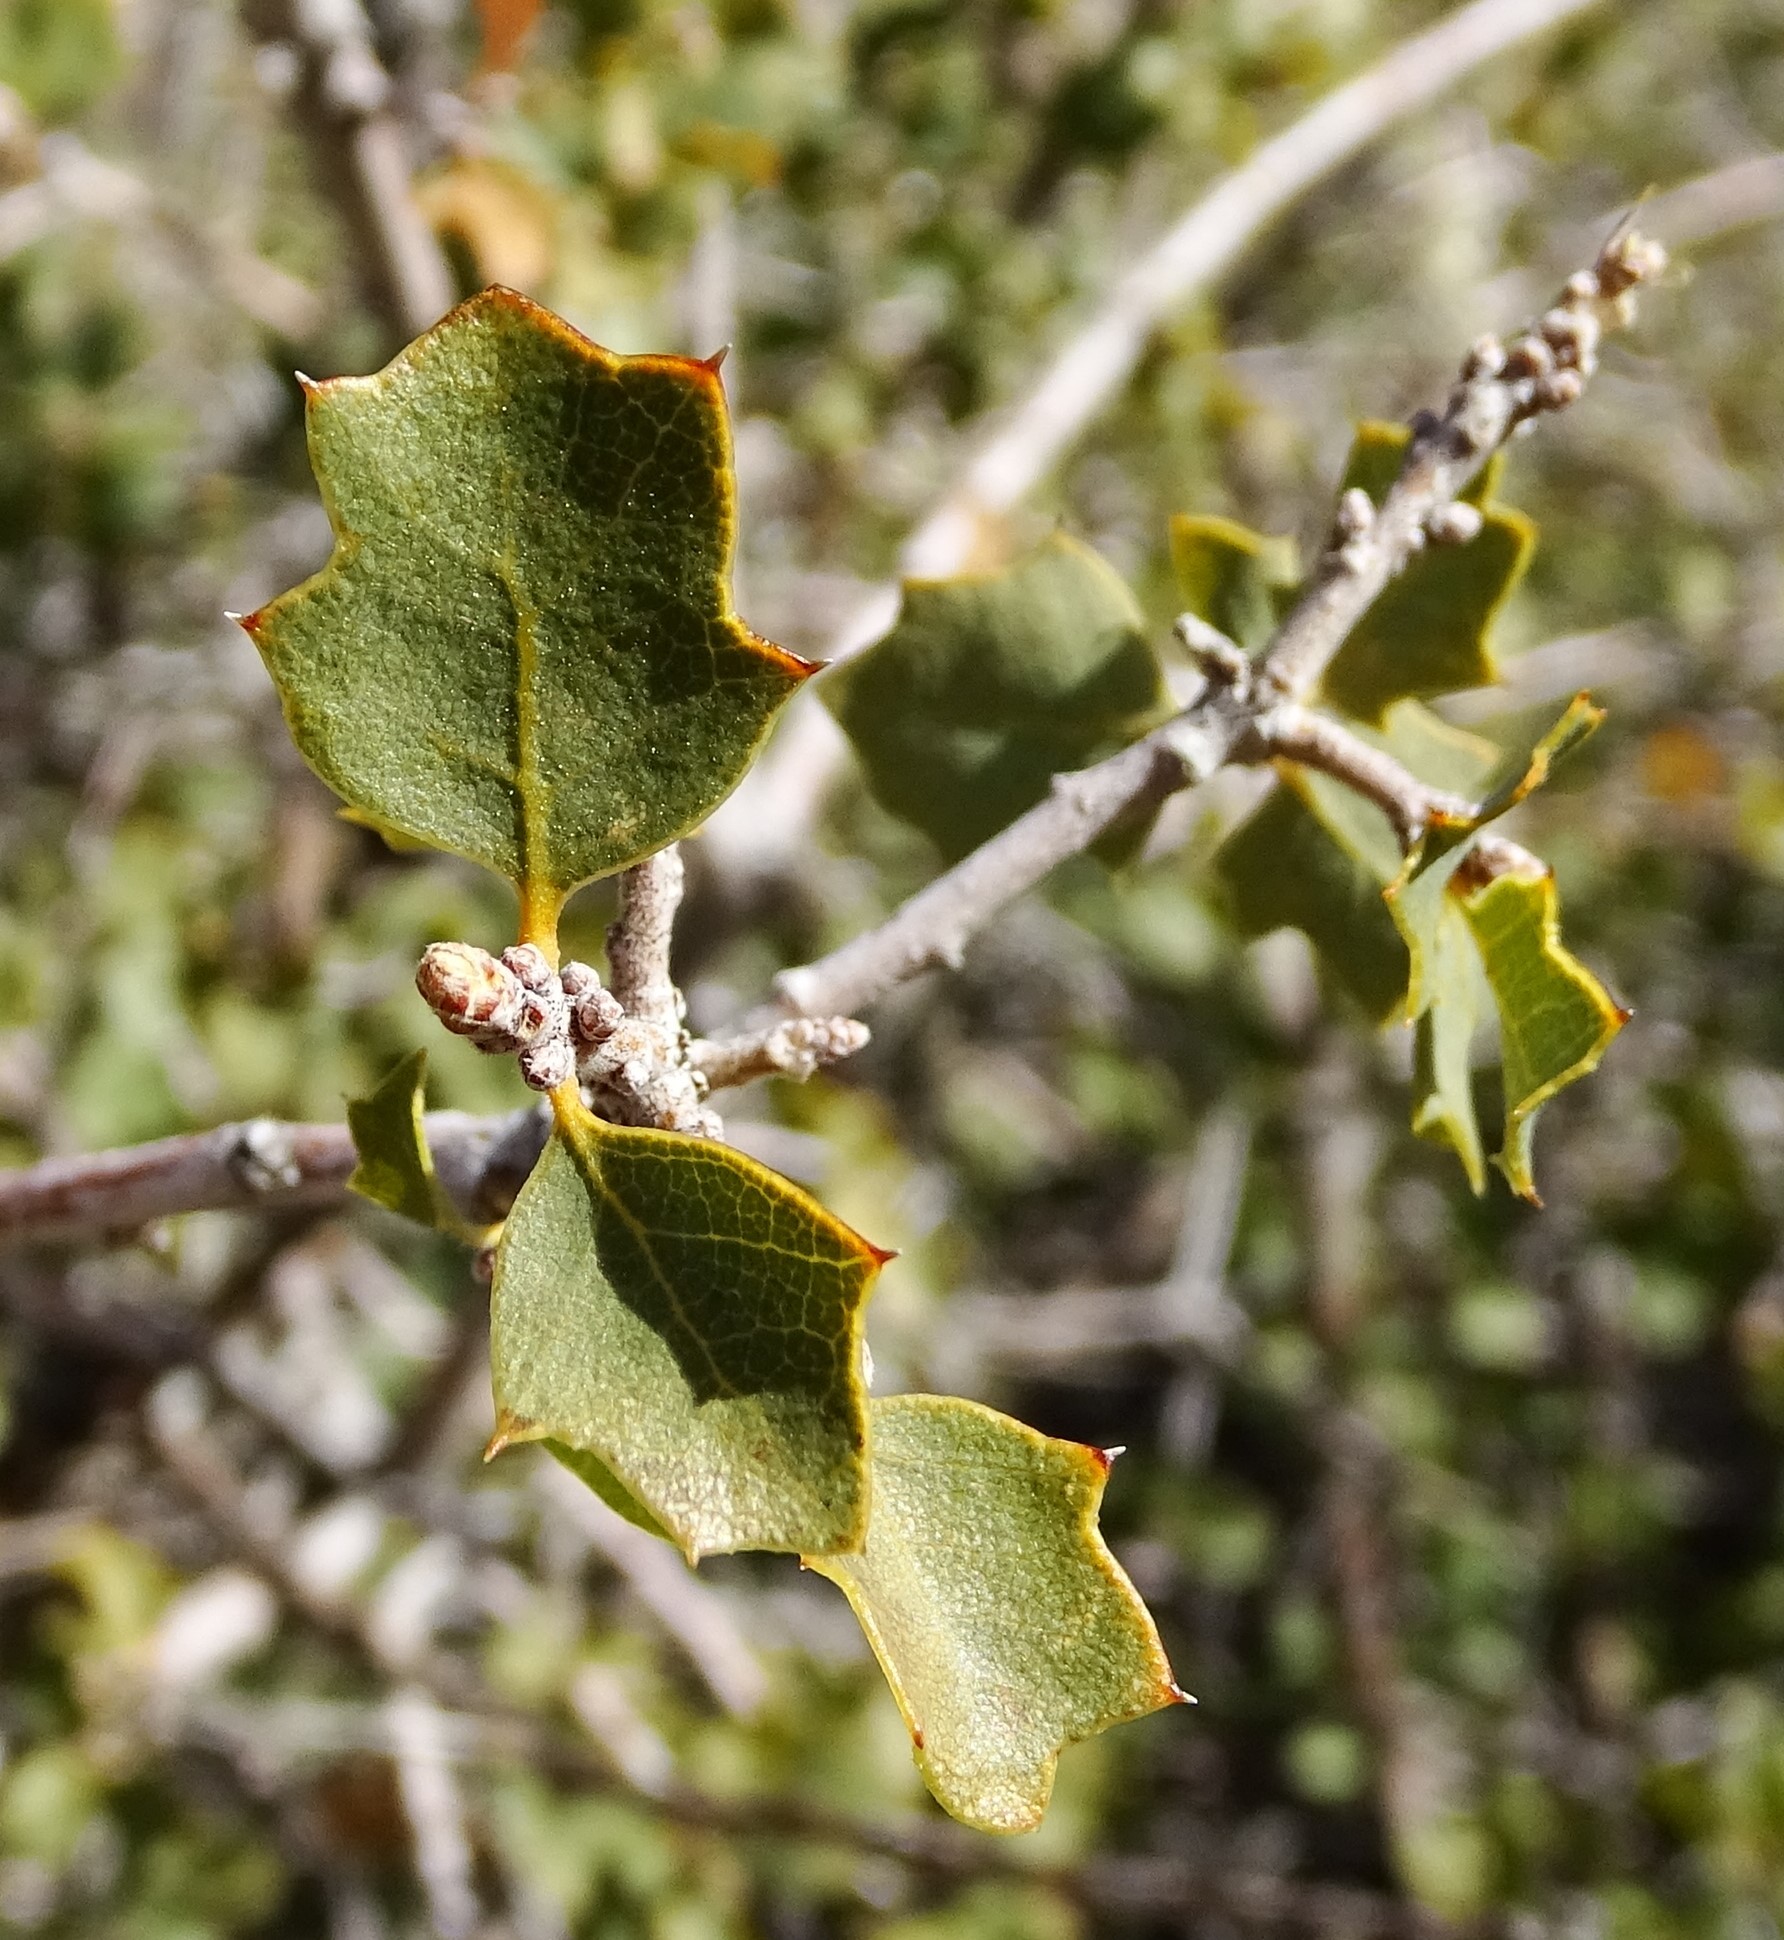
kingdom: Plantae
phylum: Tracheophyta
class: Magnoliopsida
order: Fagales
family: Fagaceae
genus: Quercus
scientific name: Quercus john-tuckeri
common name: Tucker's oak
